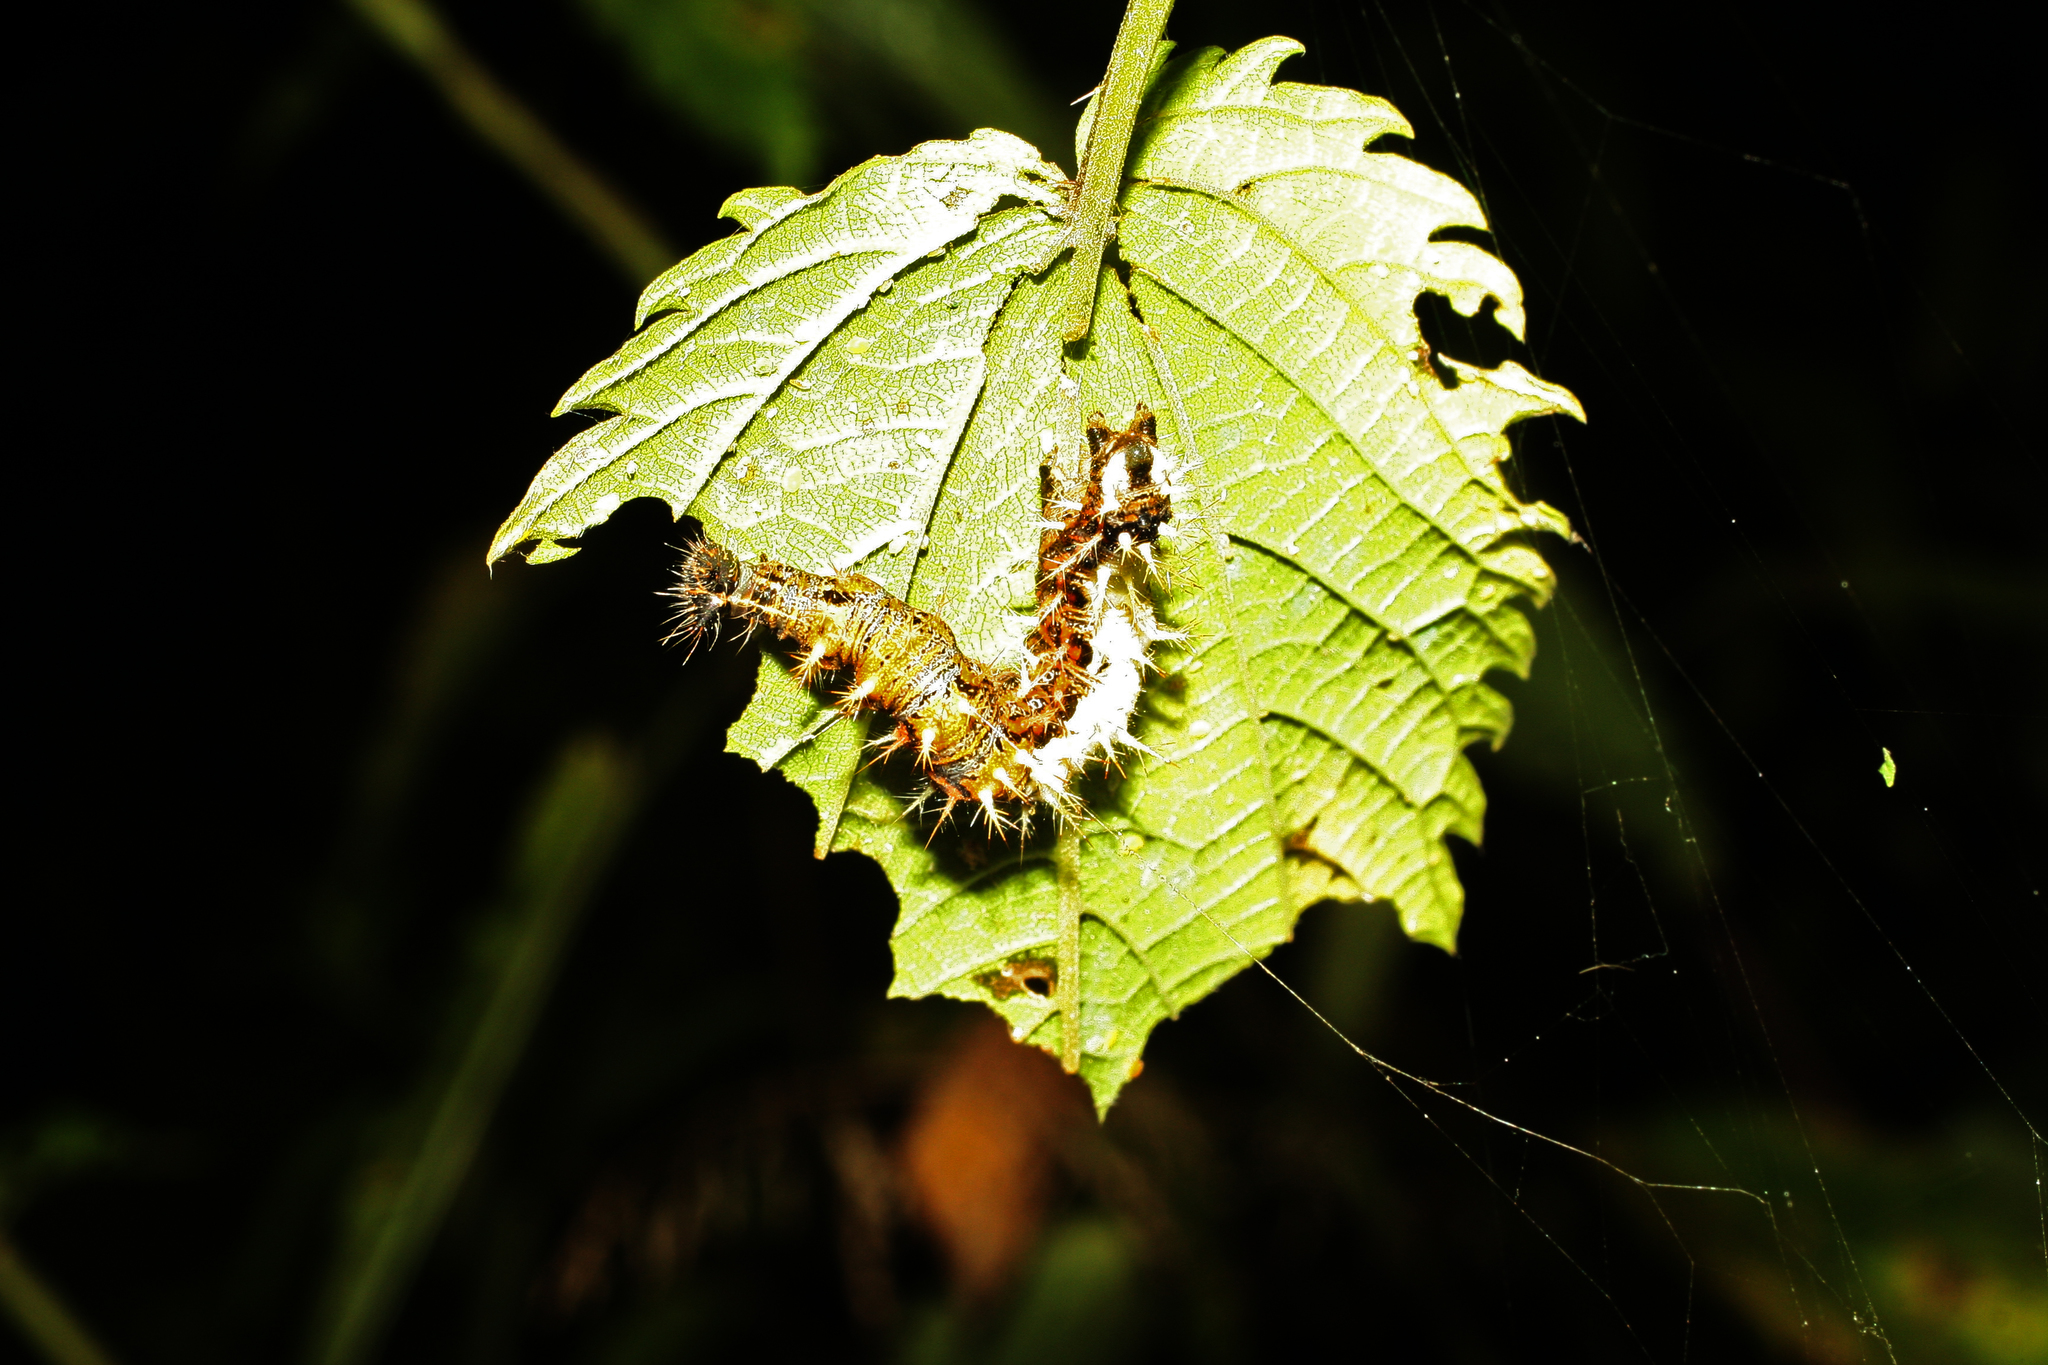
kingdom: Animalia
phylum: Arthropoda
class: Insecta
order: Lepidoptera
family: Nymphalidae
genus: Polygonia
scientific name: Polygonia c-album
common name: Comma
